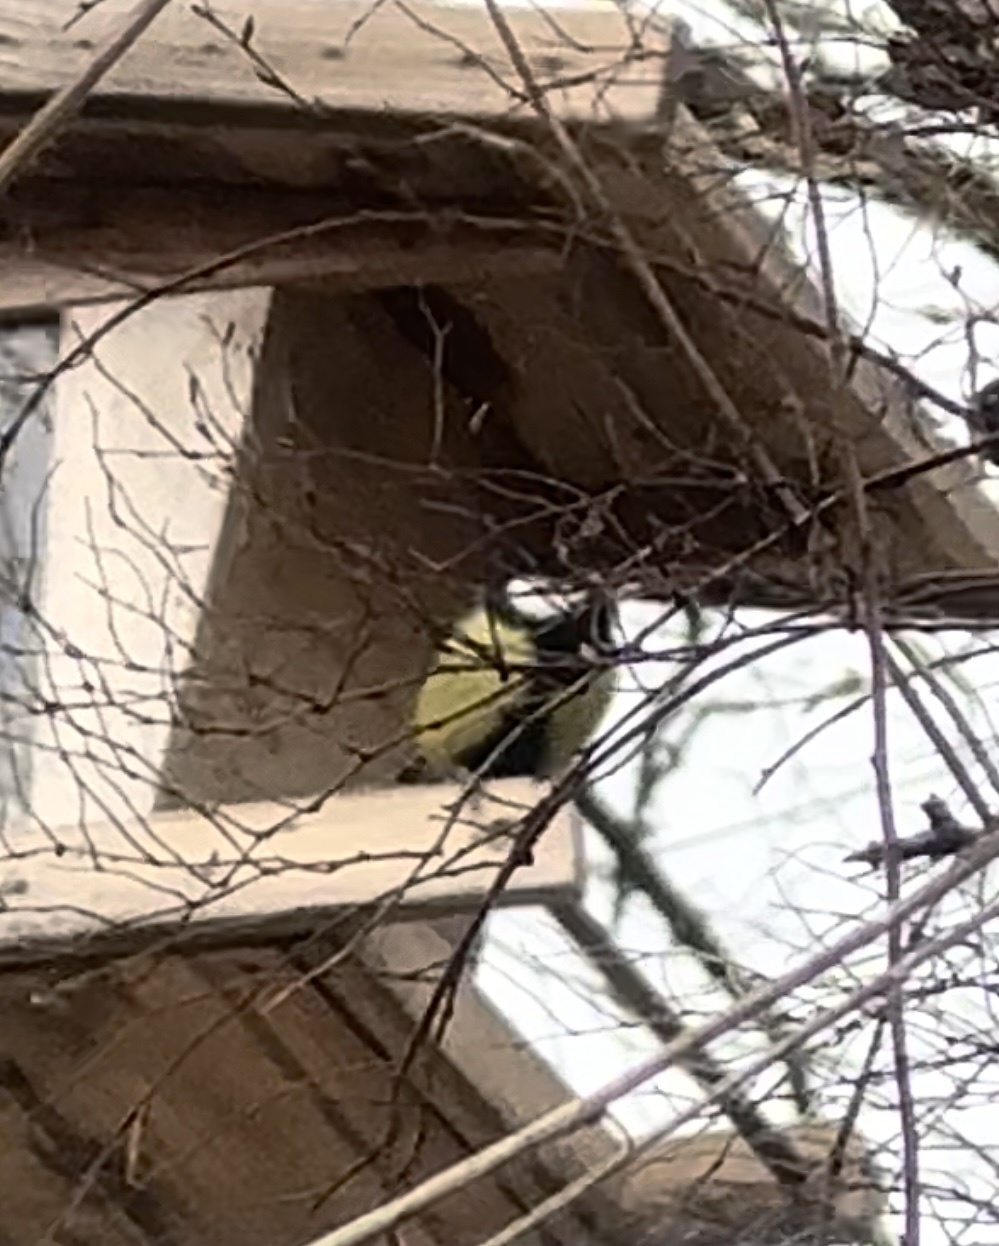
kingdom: Animalia
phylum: Chordata
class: Aves
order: Passeriformes
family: Paridae
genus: Parus
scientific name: Parus major
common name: Great tit
